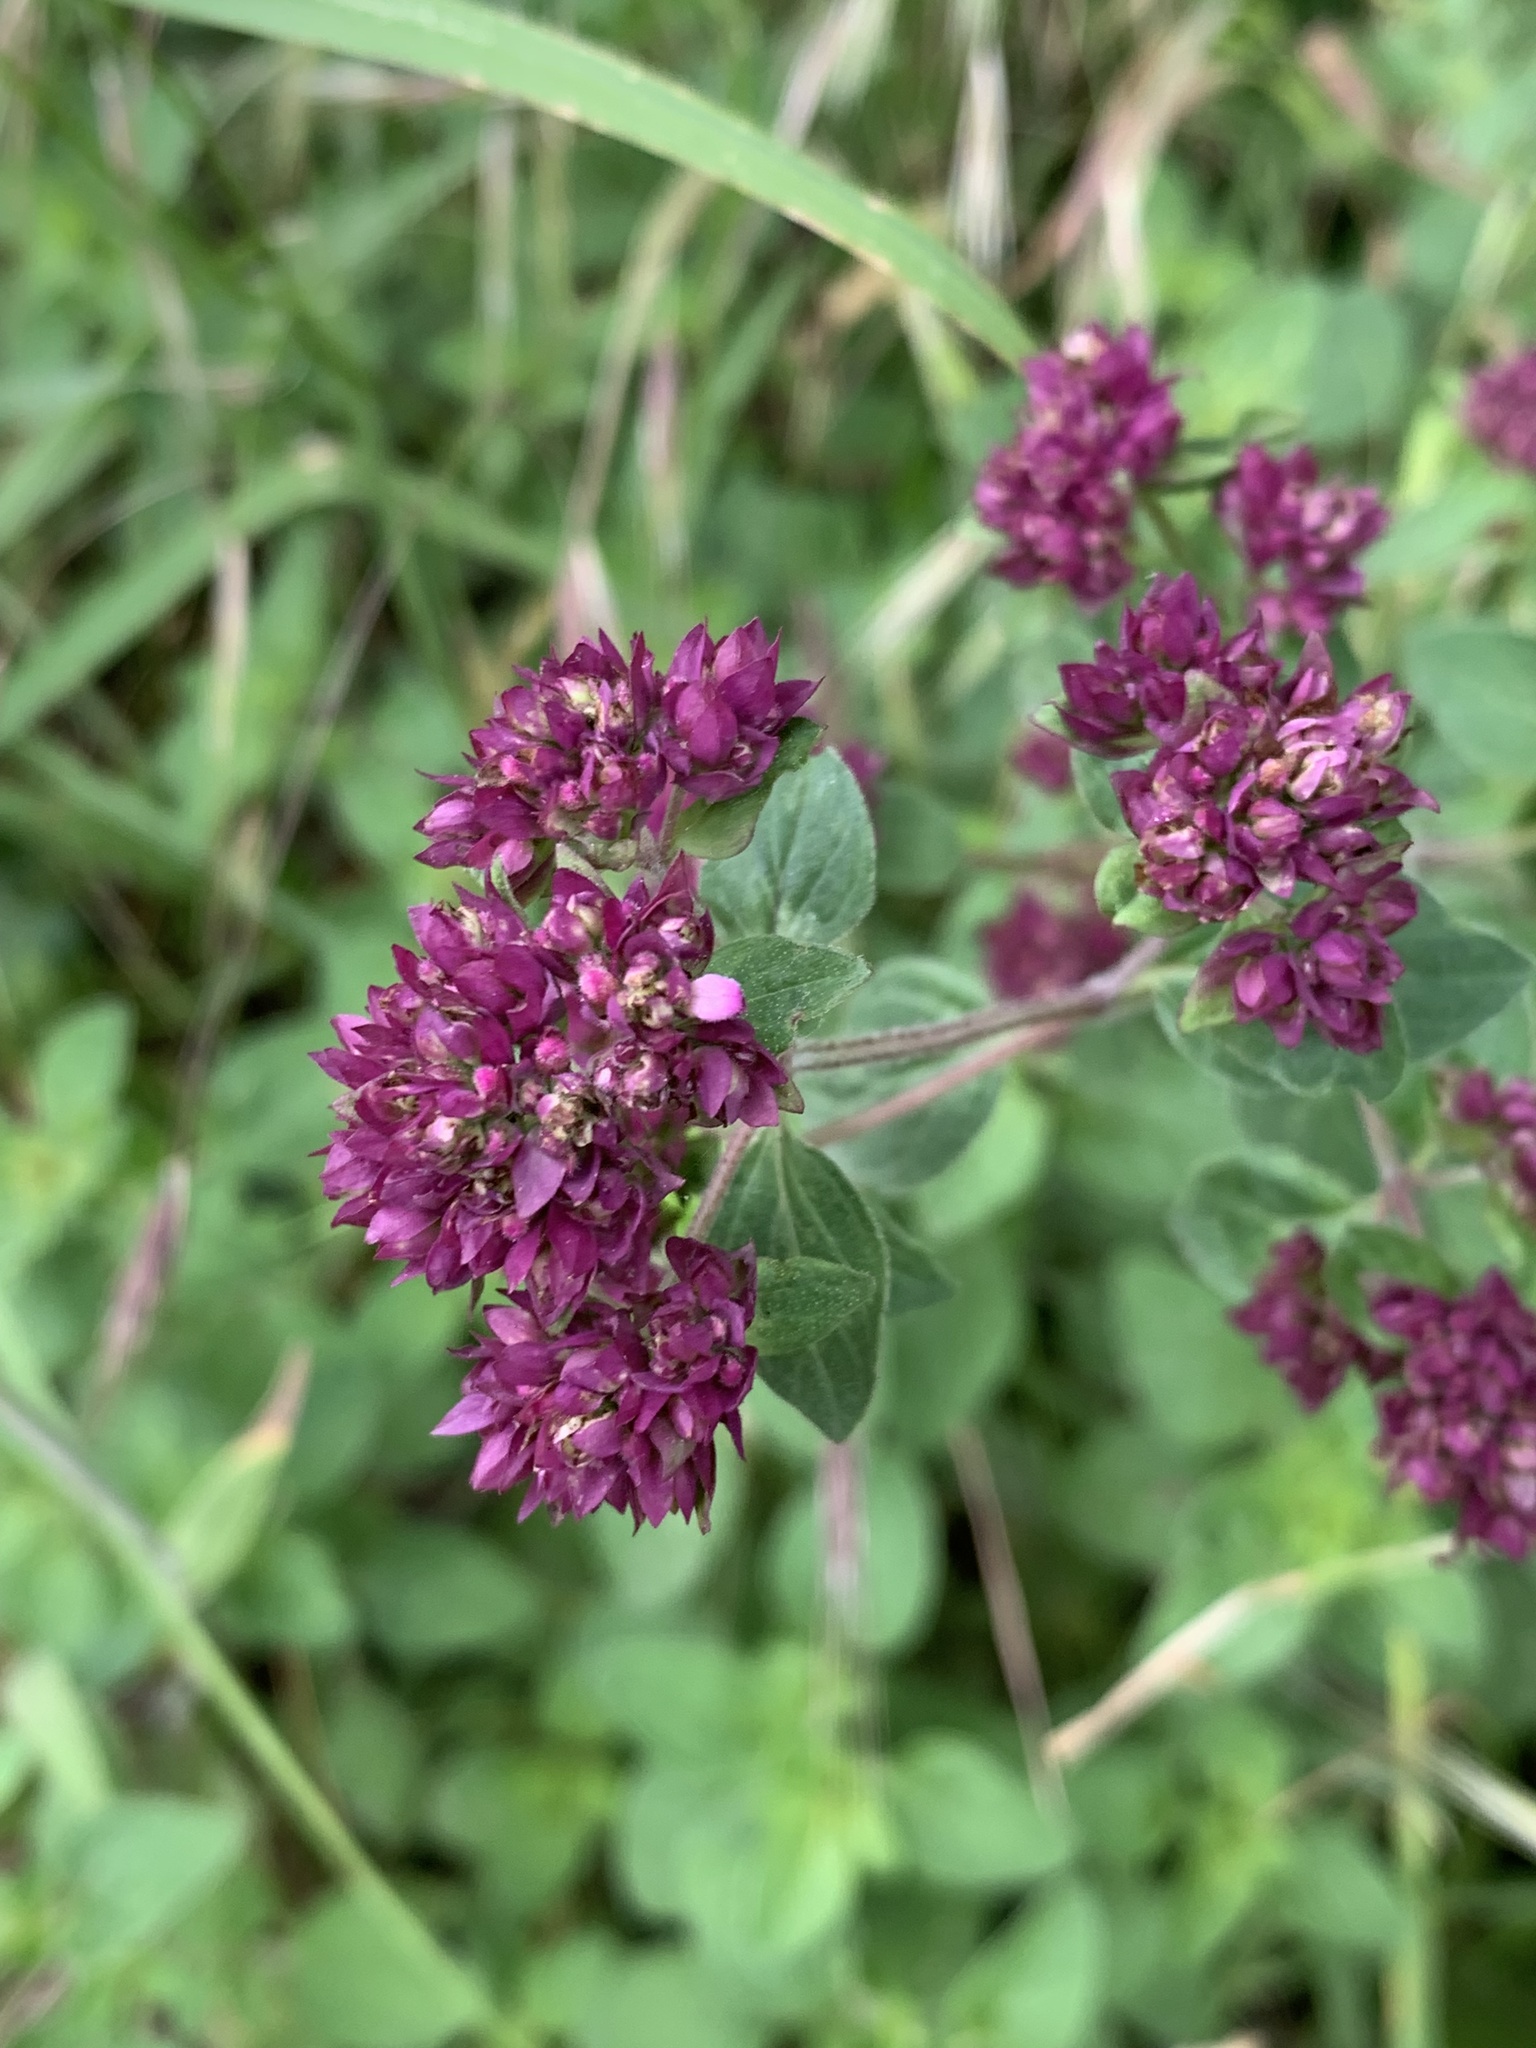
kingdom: Plantae
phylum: Tracheophyta
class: Magnoliopsida
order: Lamiales
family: Lamiaceae
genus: Origanum
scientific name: Origanum vulgare
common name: Wild marjoram
